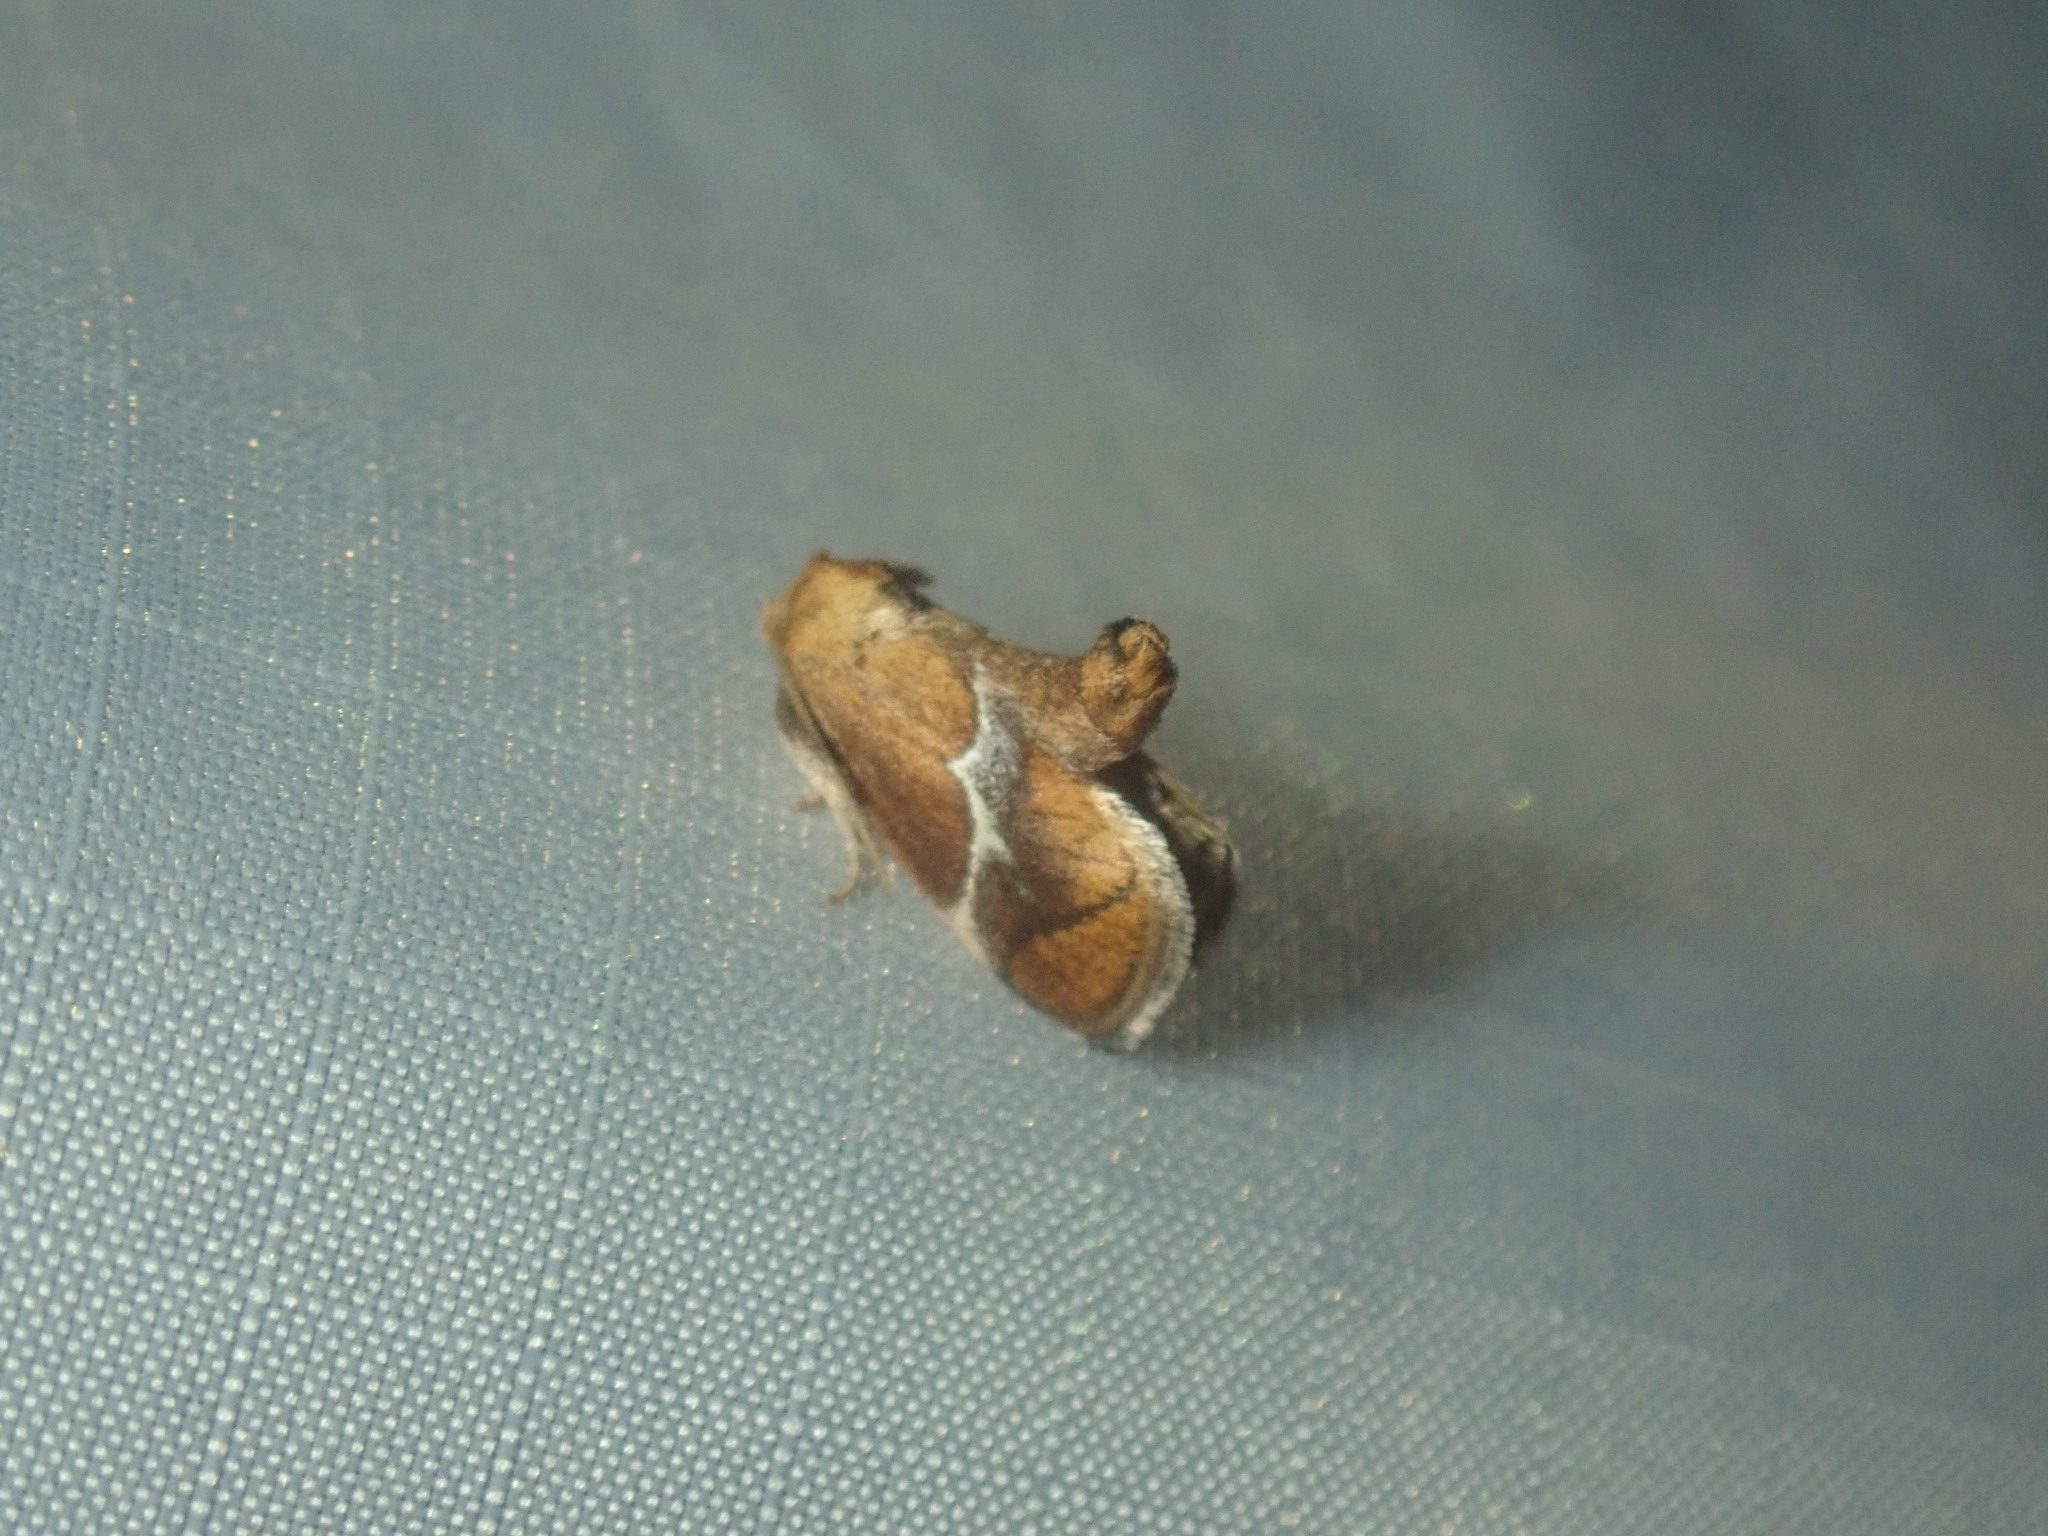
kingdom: Animalia
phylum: Arthropoda
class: Insecta
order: Lepidoptera
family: Limacodidae
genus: Lithacodes
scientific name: Lithacodes fasciola
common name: Yellow-shouldered slug moth
